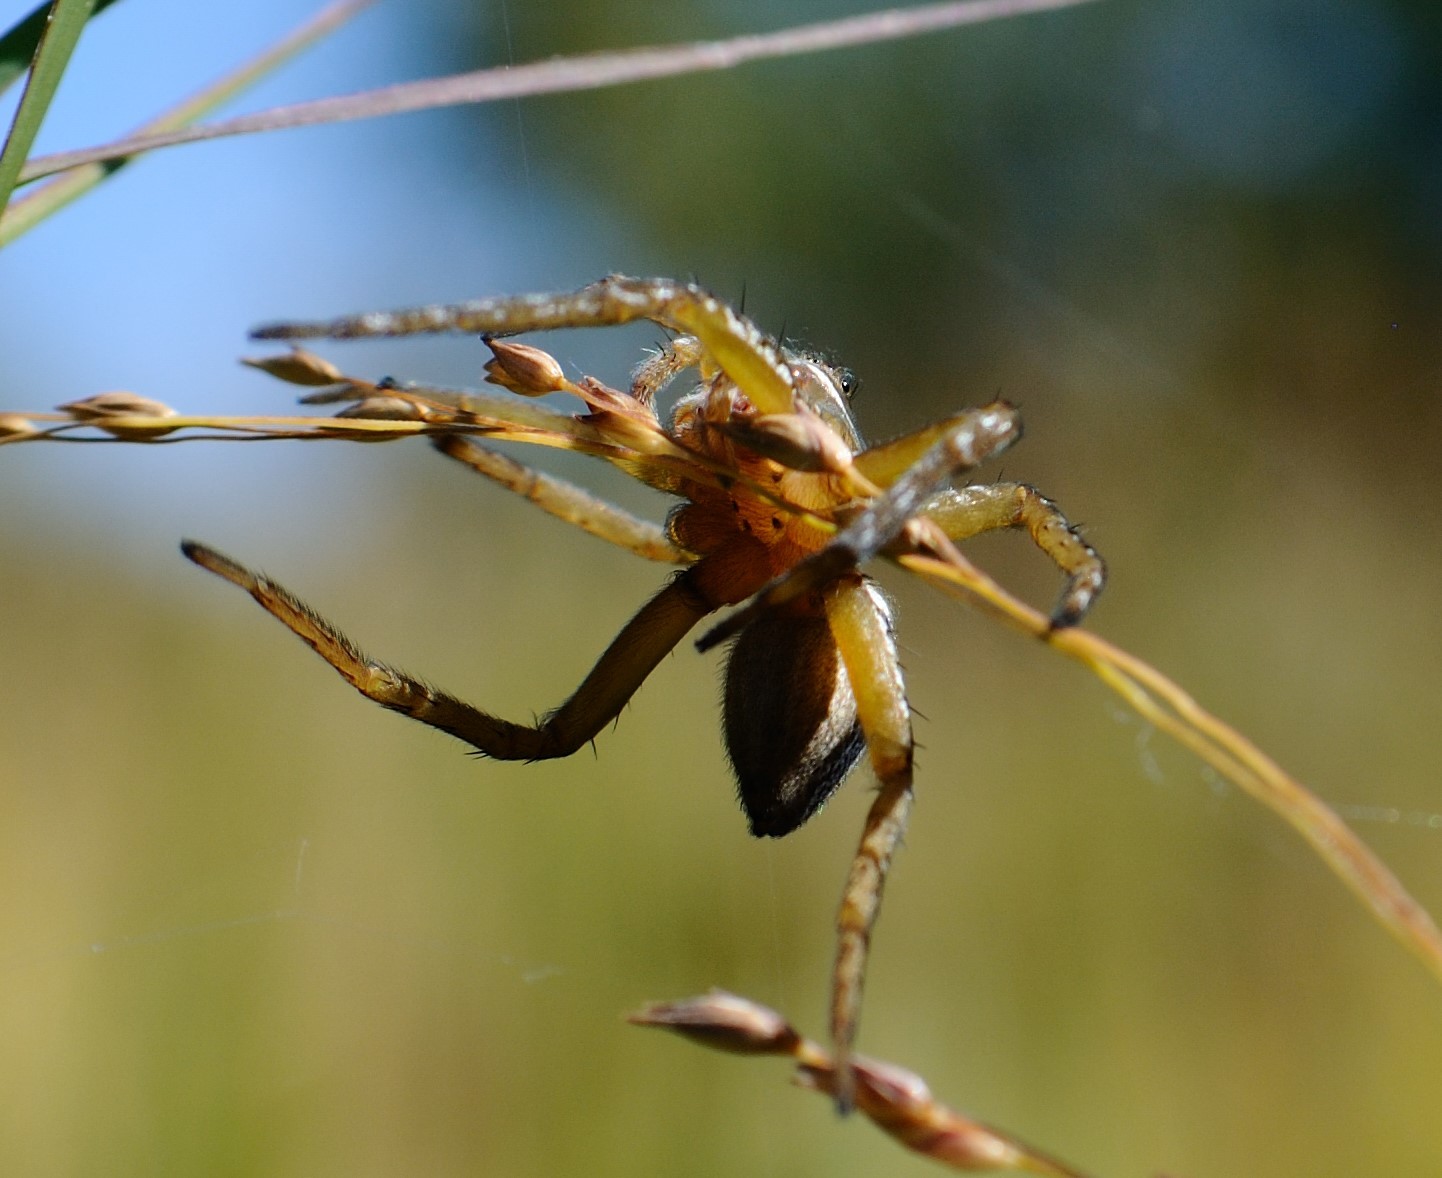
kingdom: Animalia
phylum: Arthropoda
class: Arachnida
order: Araneae
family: Pisauridae
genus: Dolomedes
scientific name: Dolomedes triton
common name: Six-spotted fishing spider
